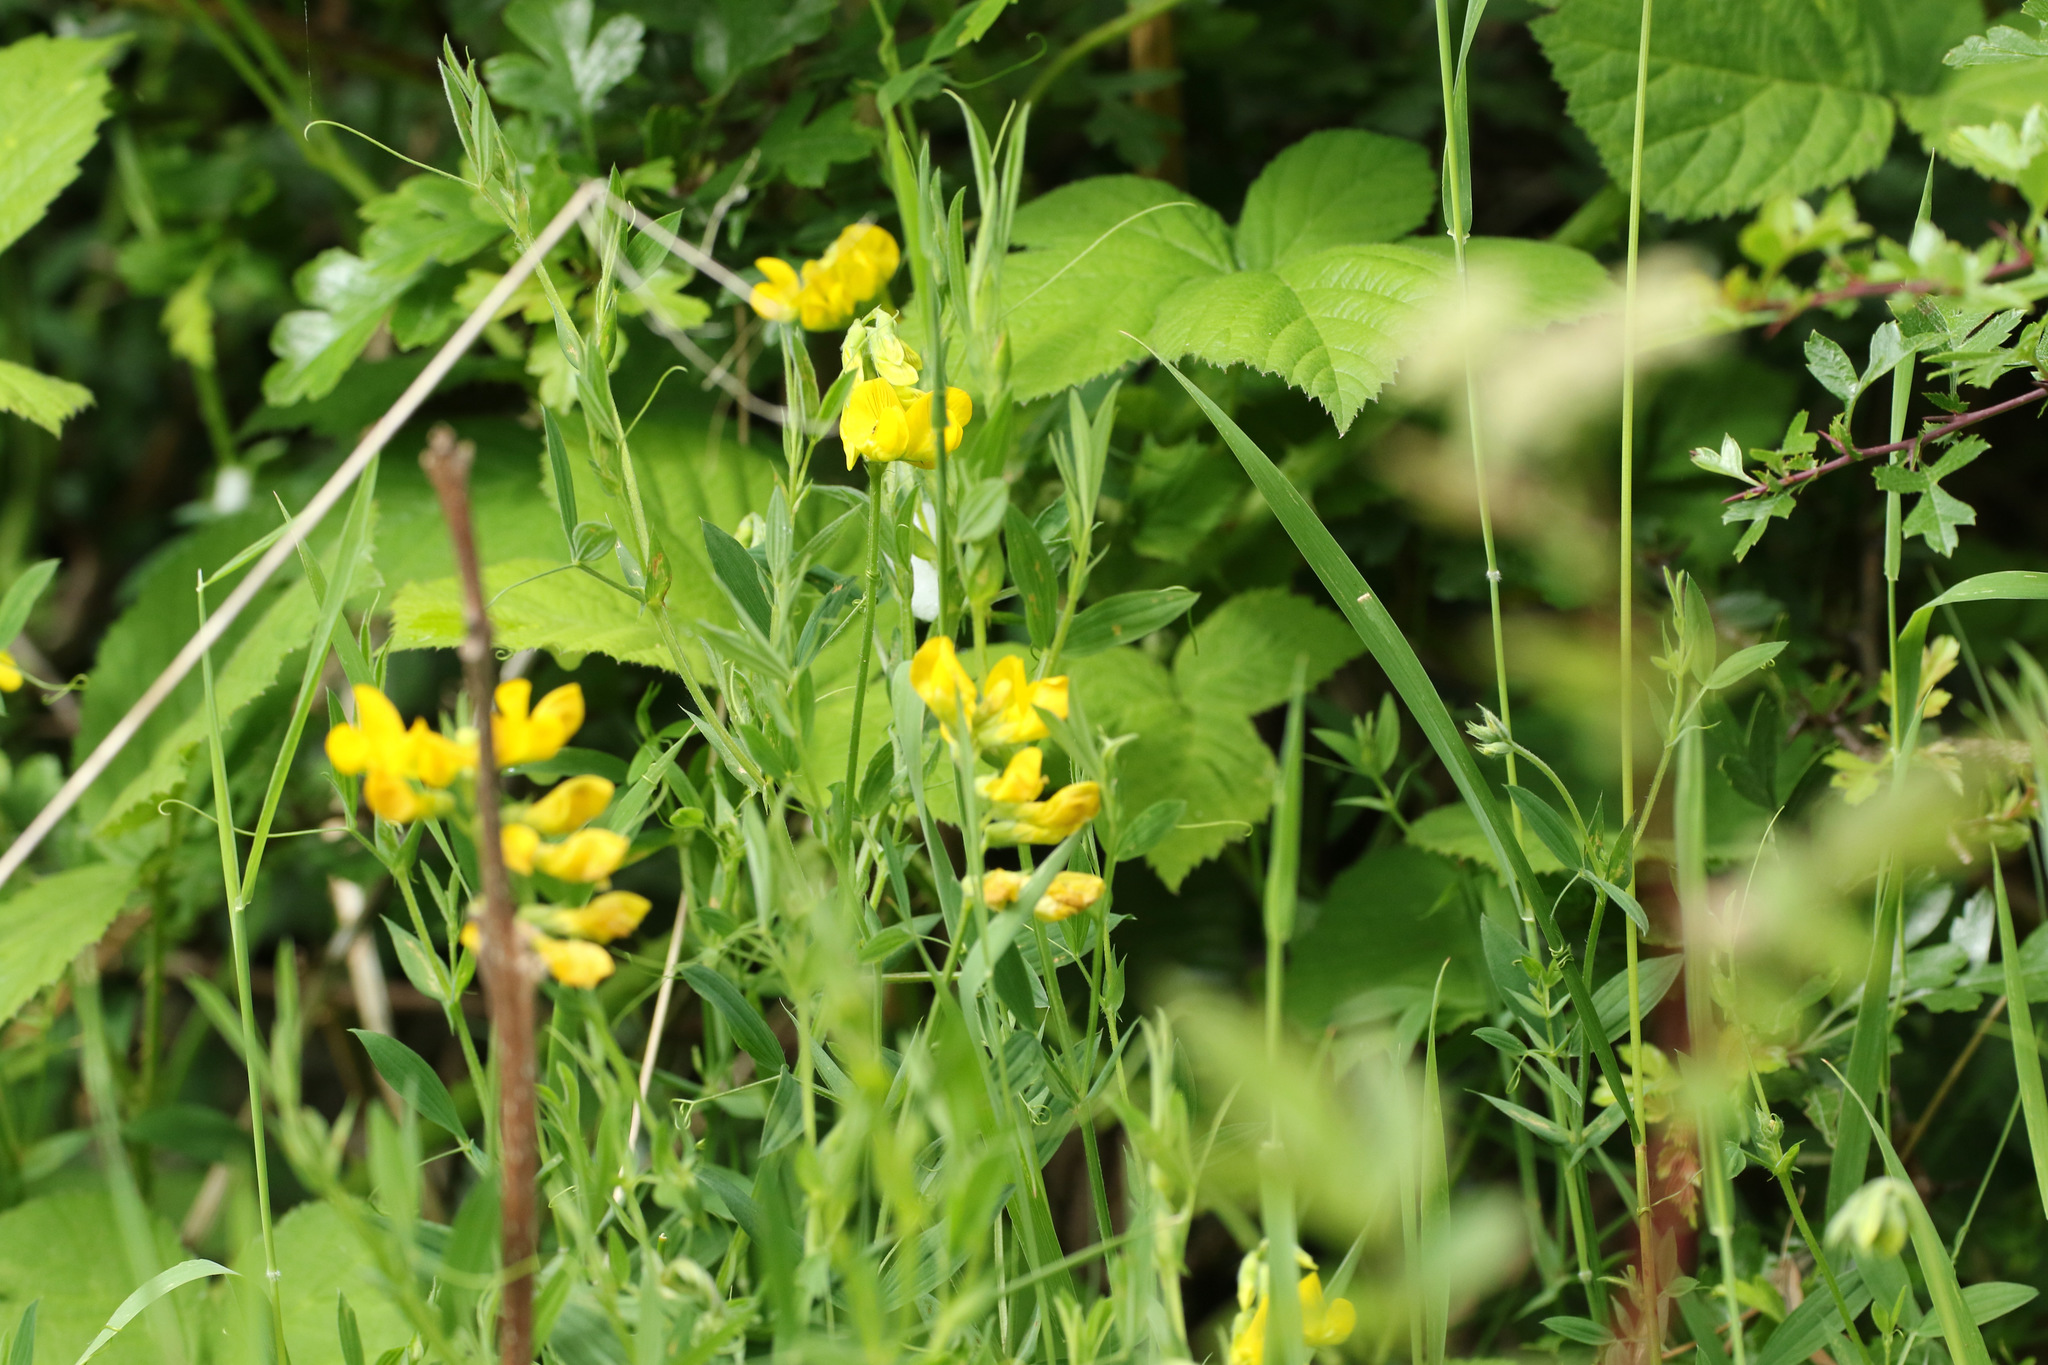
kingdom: Plantae
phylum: Tracheophyta
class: Magnoliopsida
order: Fabales
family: Fabaceae
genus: Lathyrus
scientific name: Lathyrus pratensis
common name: Meadow vetchling
